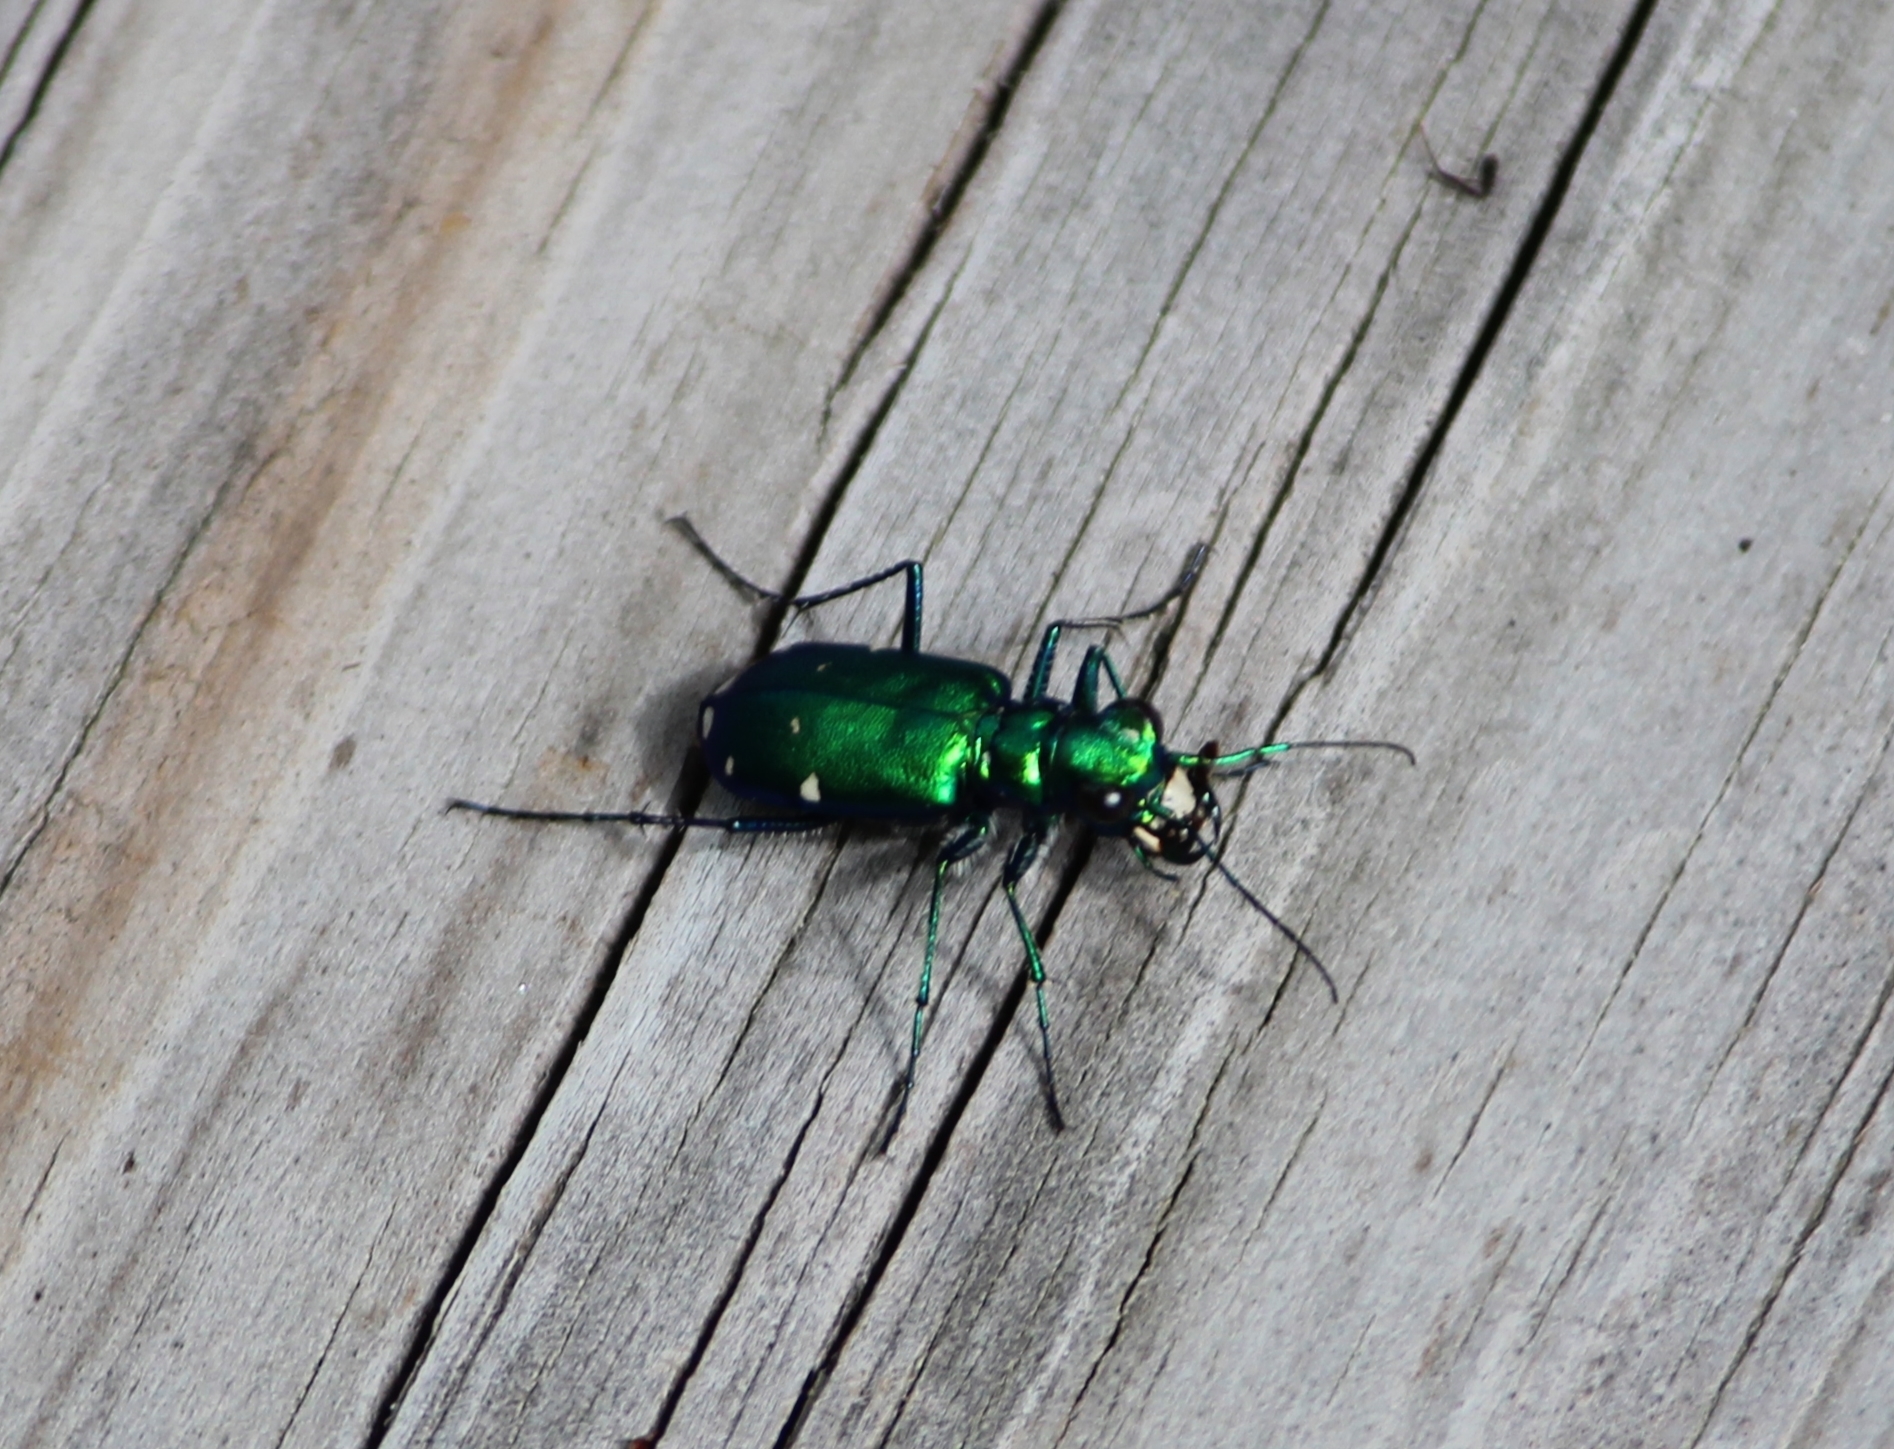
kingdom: Animalia
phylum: Arthropoda
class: Insecta
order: Coleoptera
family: Carabidae
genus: Cicindela
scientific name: Cicindela sexguttata
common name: Six-spotted tiger beetle
